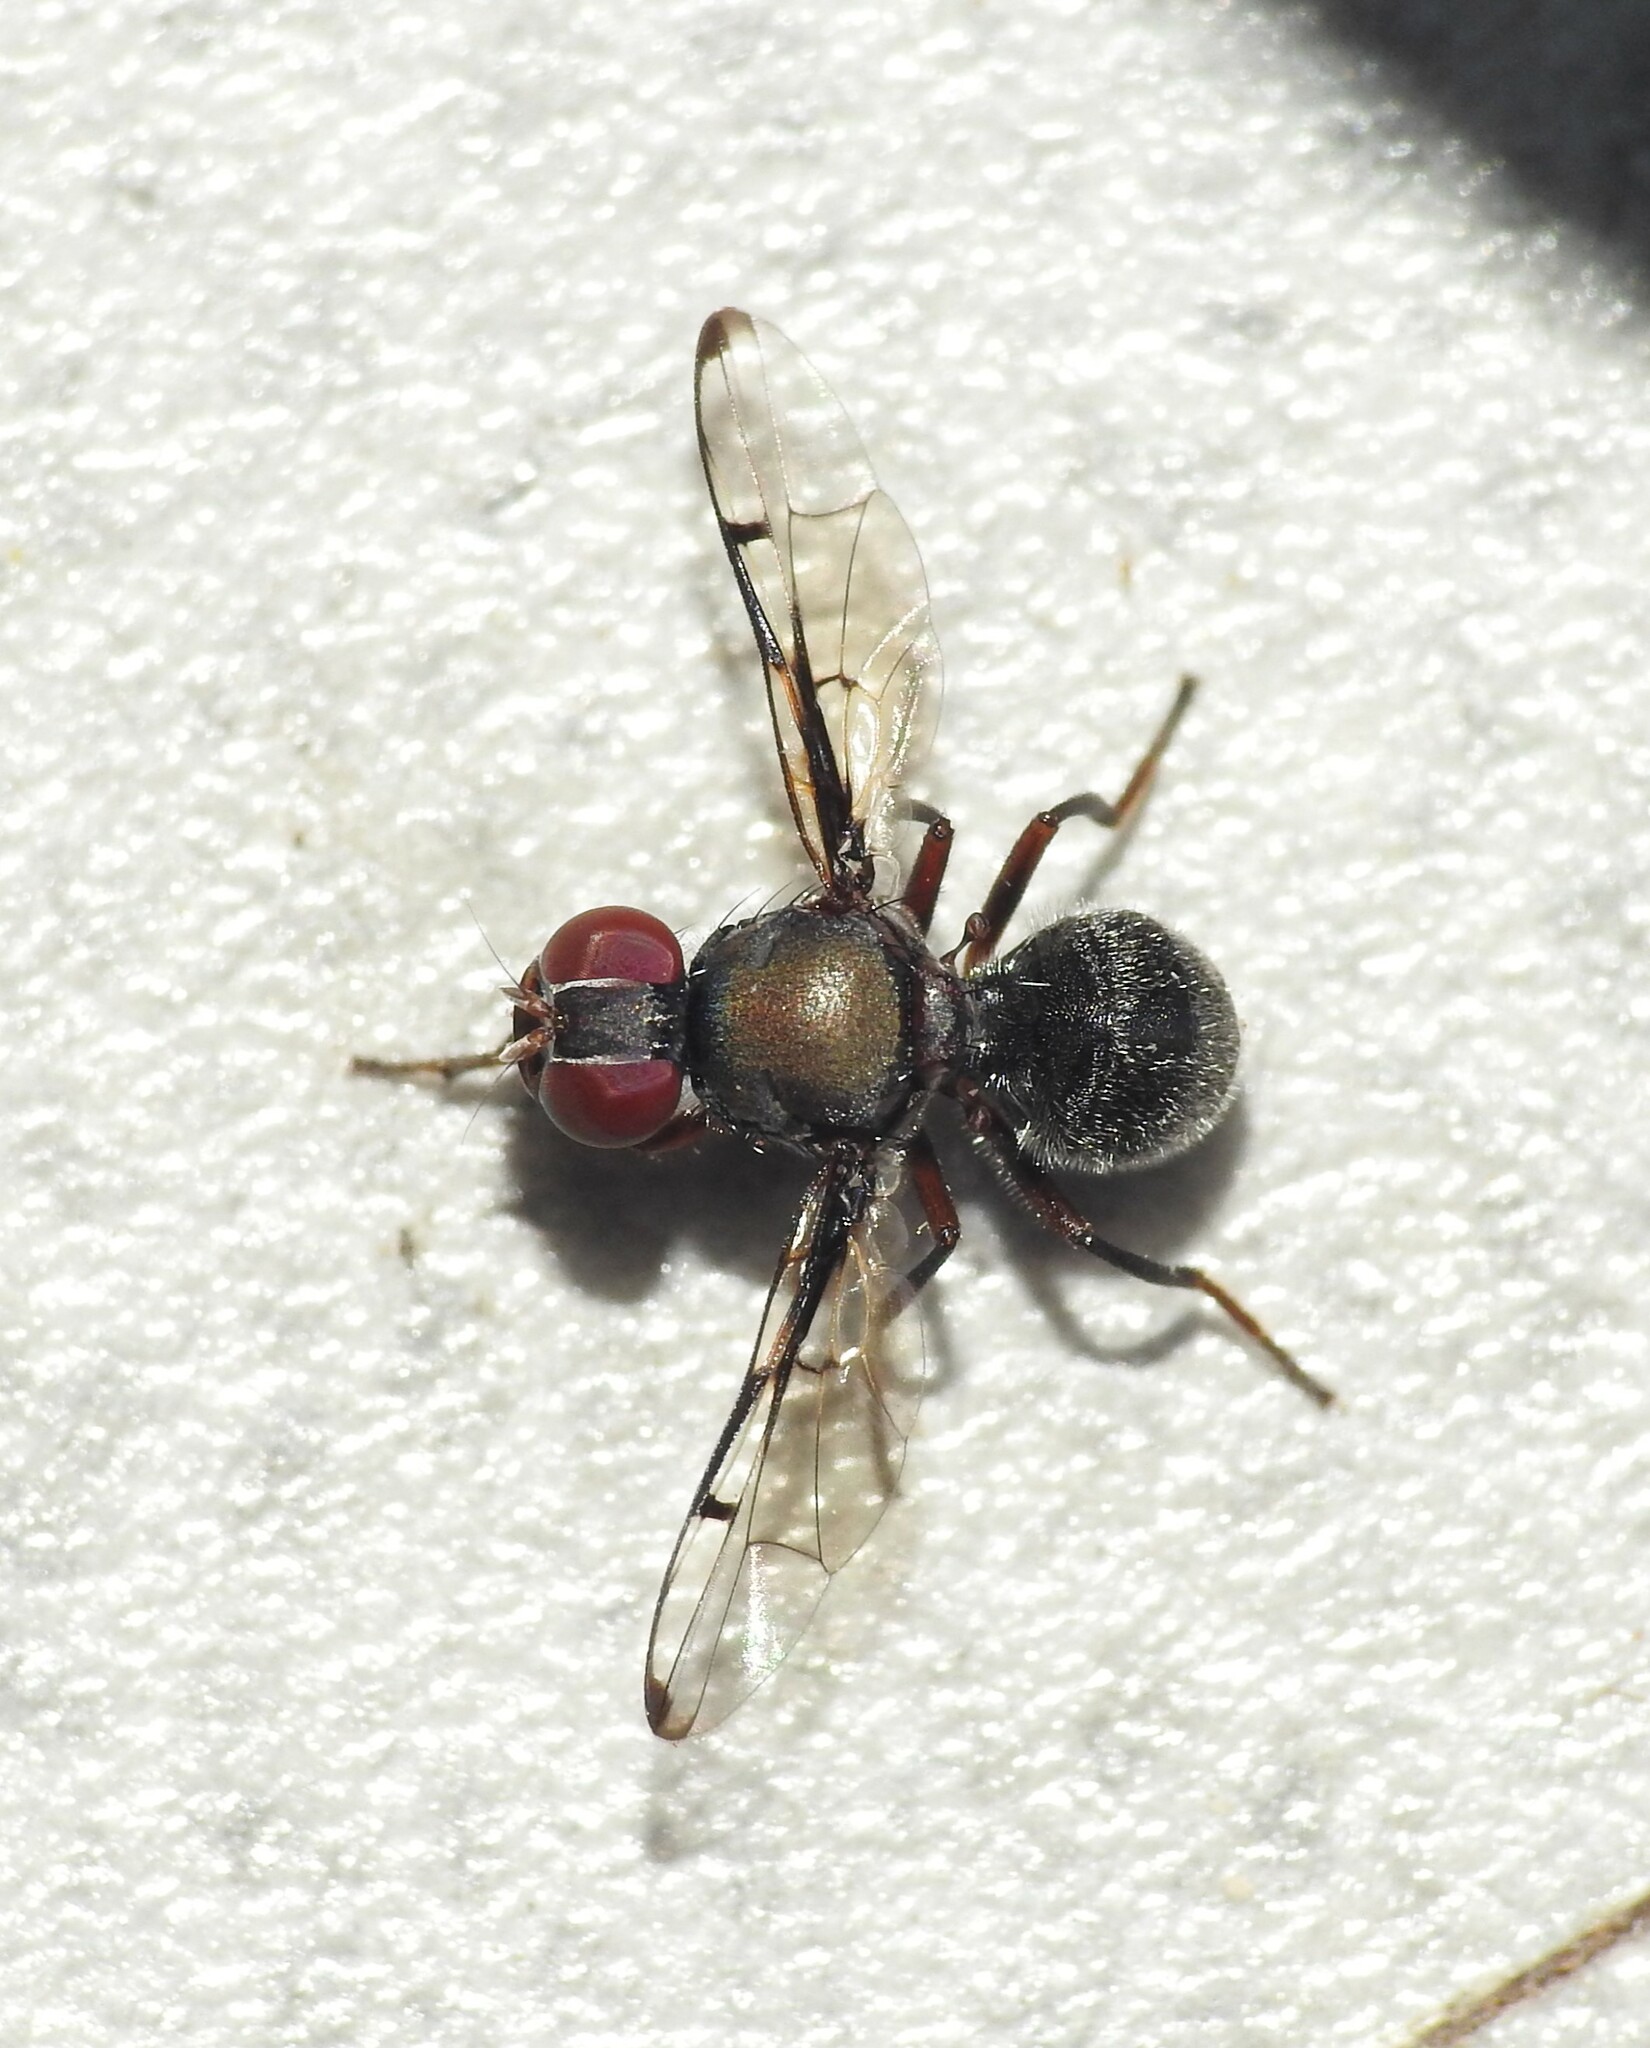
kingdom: Animalia
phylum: Arthropoda
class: Insecta
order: Diptera
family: Platystomatidae
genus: Pogonortalis
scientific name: Pogonortalis doclea
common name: Boatman fly
